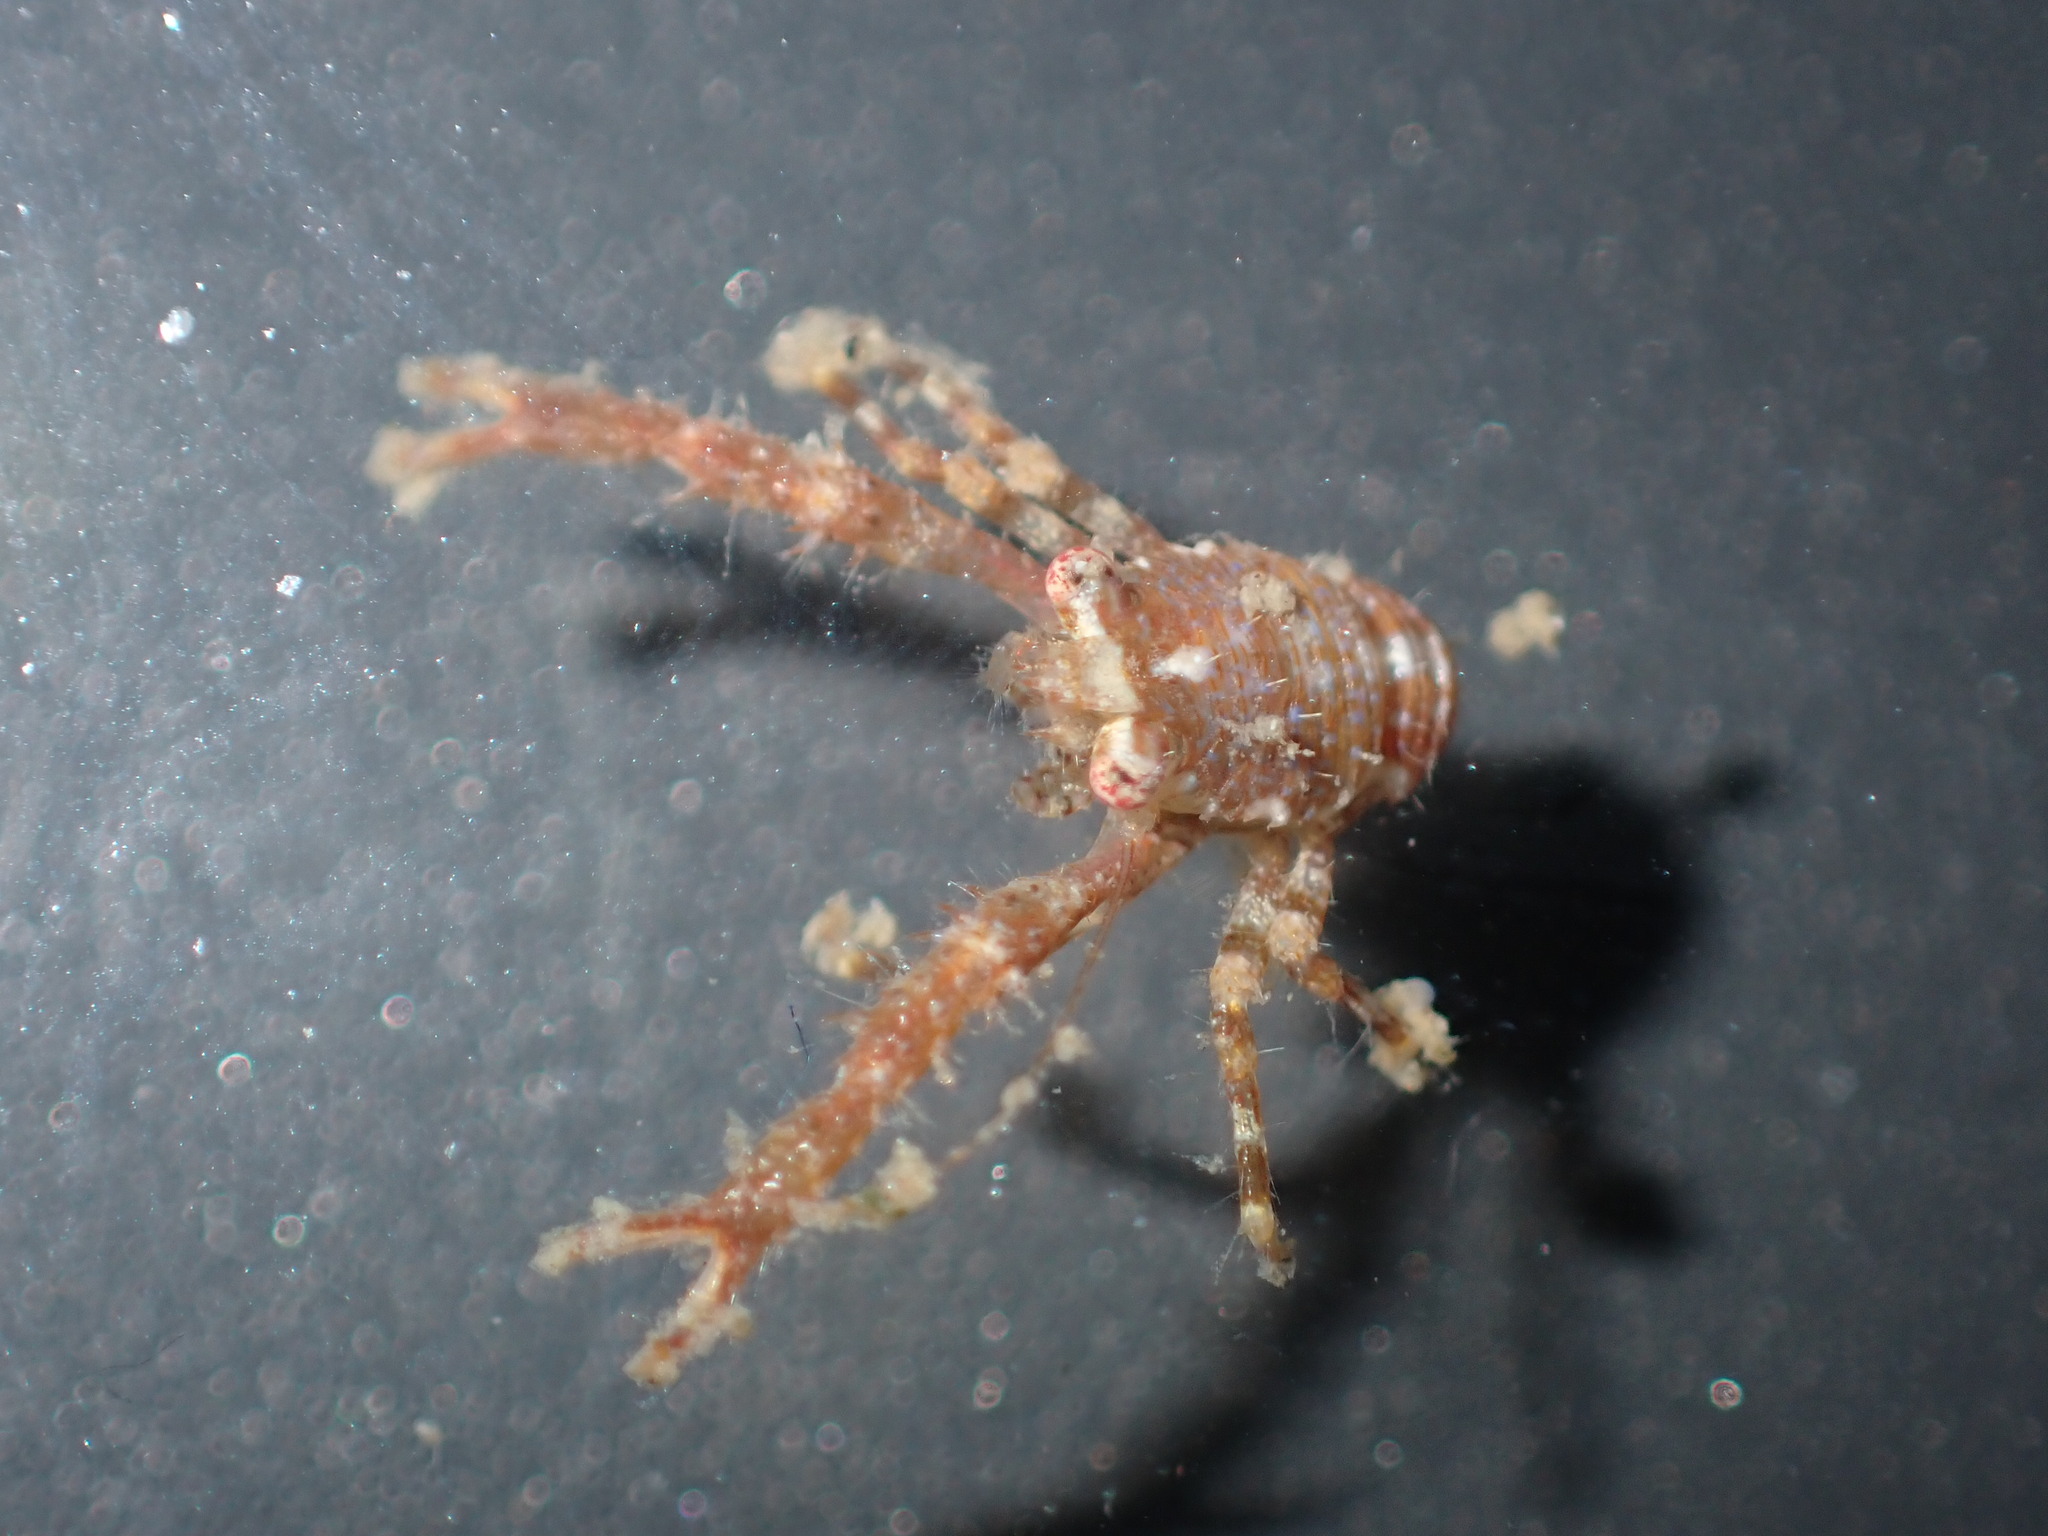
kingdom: Animalia
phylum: Arthropoda
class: Malacostraca
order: Decapoda
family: Galatheidae
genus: Galathea
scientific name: Galathea australiensis
